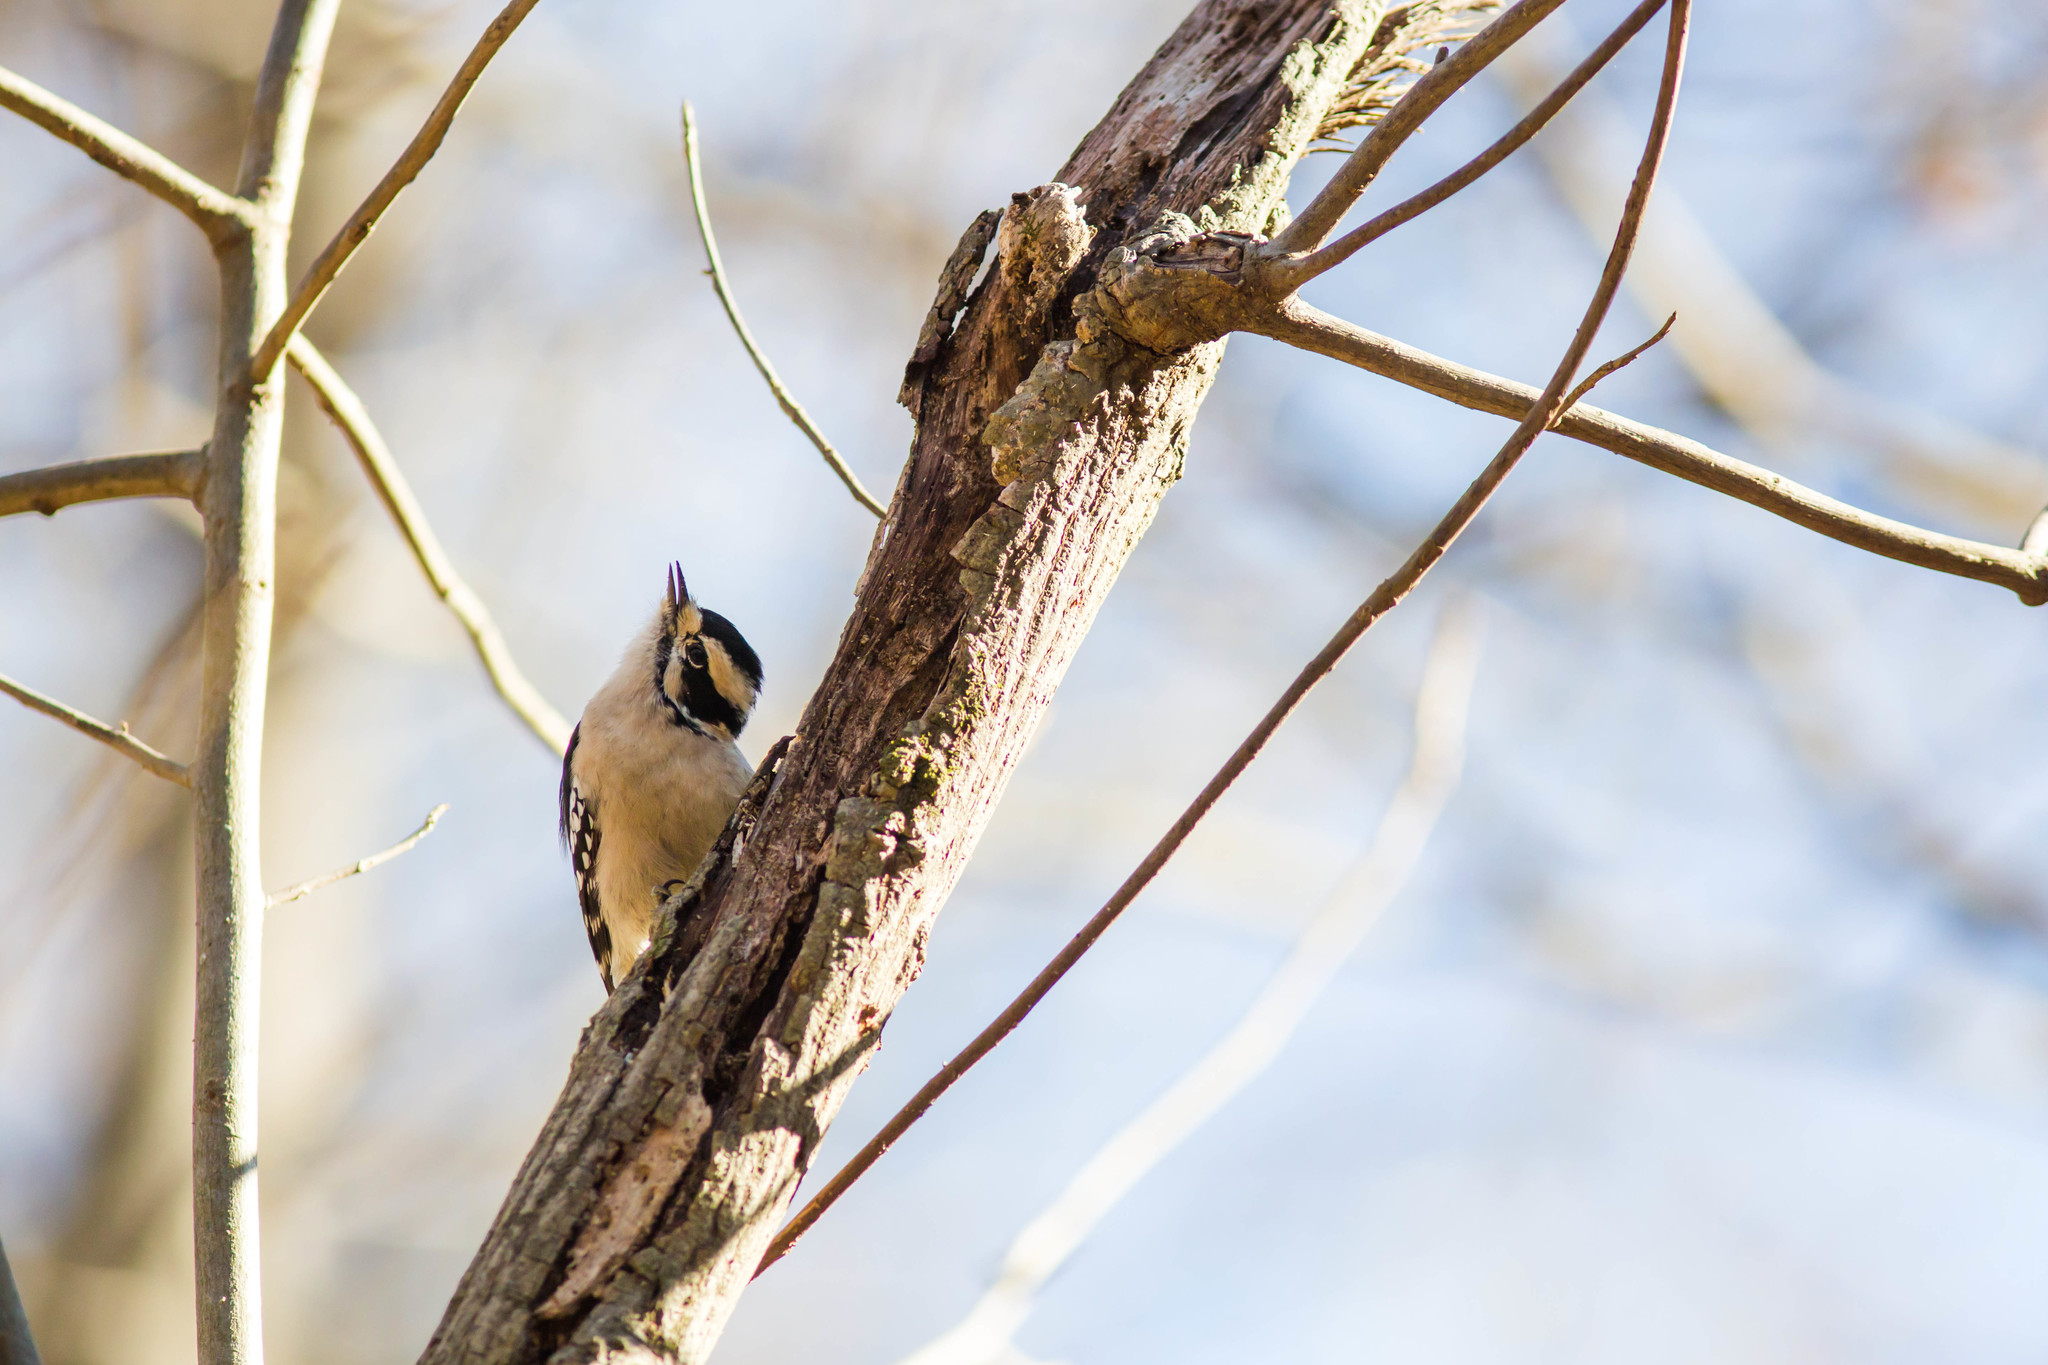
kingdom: Animalia
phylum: Chordata
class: Aves
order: Piciformes
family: Picidae
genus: Dryobates
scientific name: Dryobates pubescens
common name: Downy woodpecker
